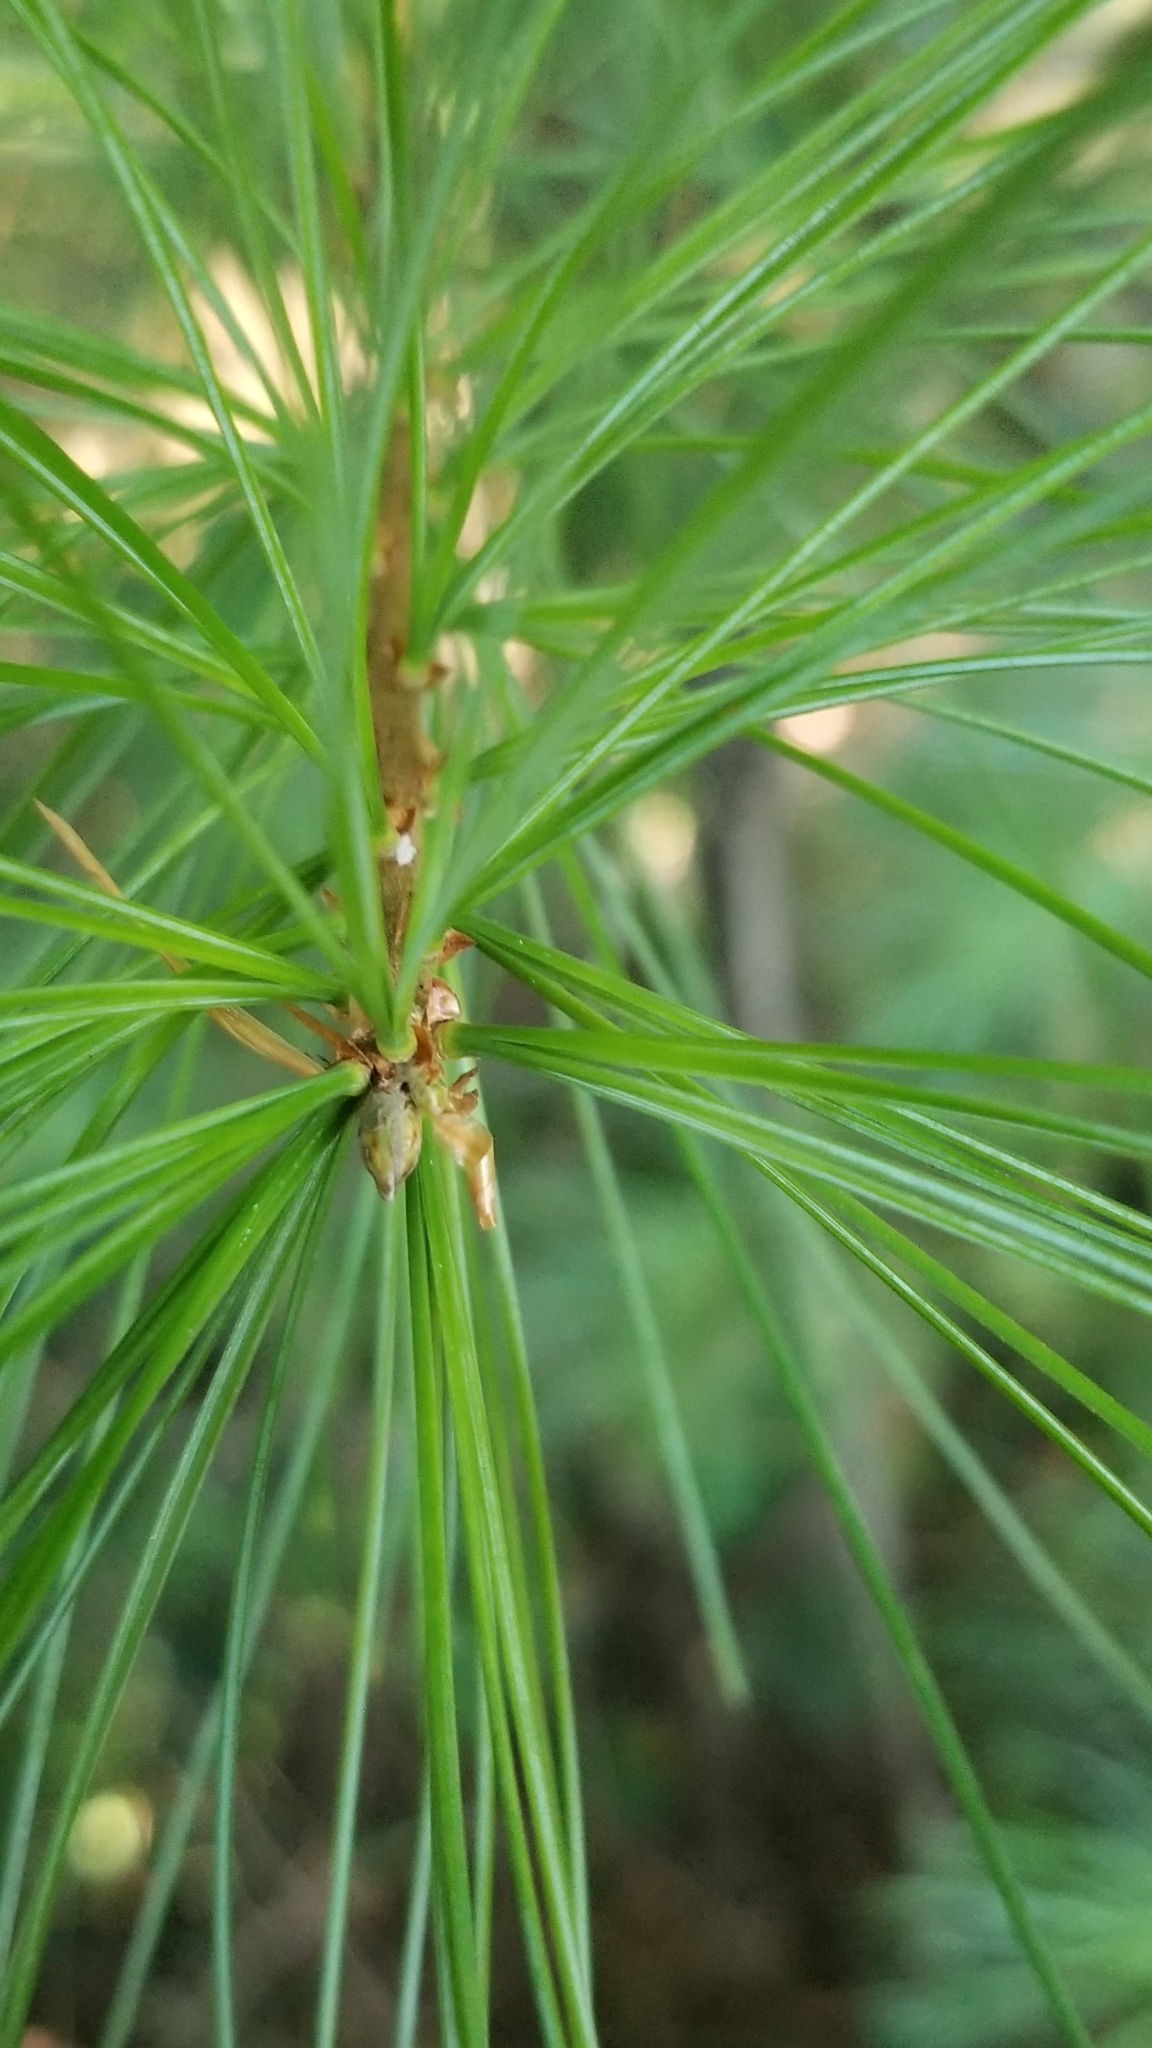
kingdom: Plantae
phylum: Tracheophyta
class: Pinopsida
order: Pinales
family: Pinaceae
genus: Pinus
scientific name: Pinus strobus
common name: Weymouth pine
